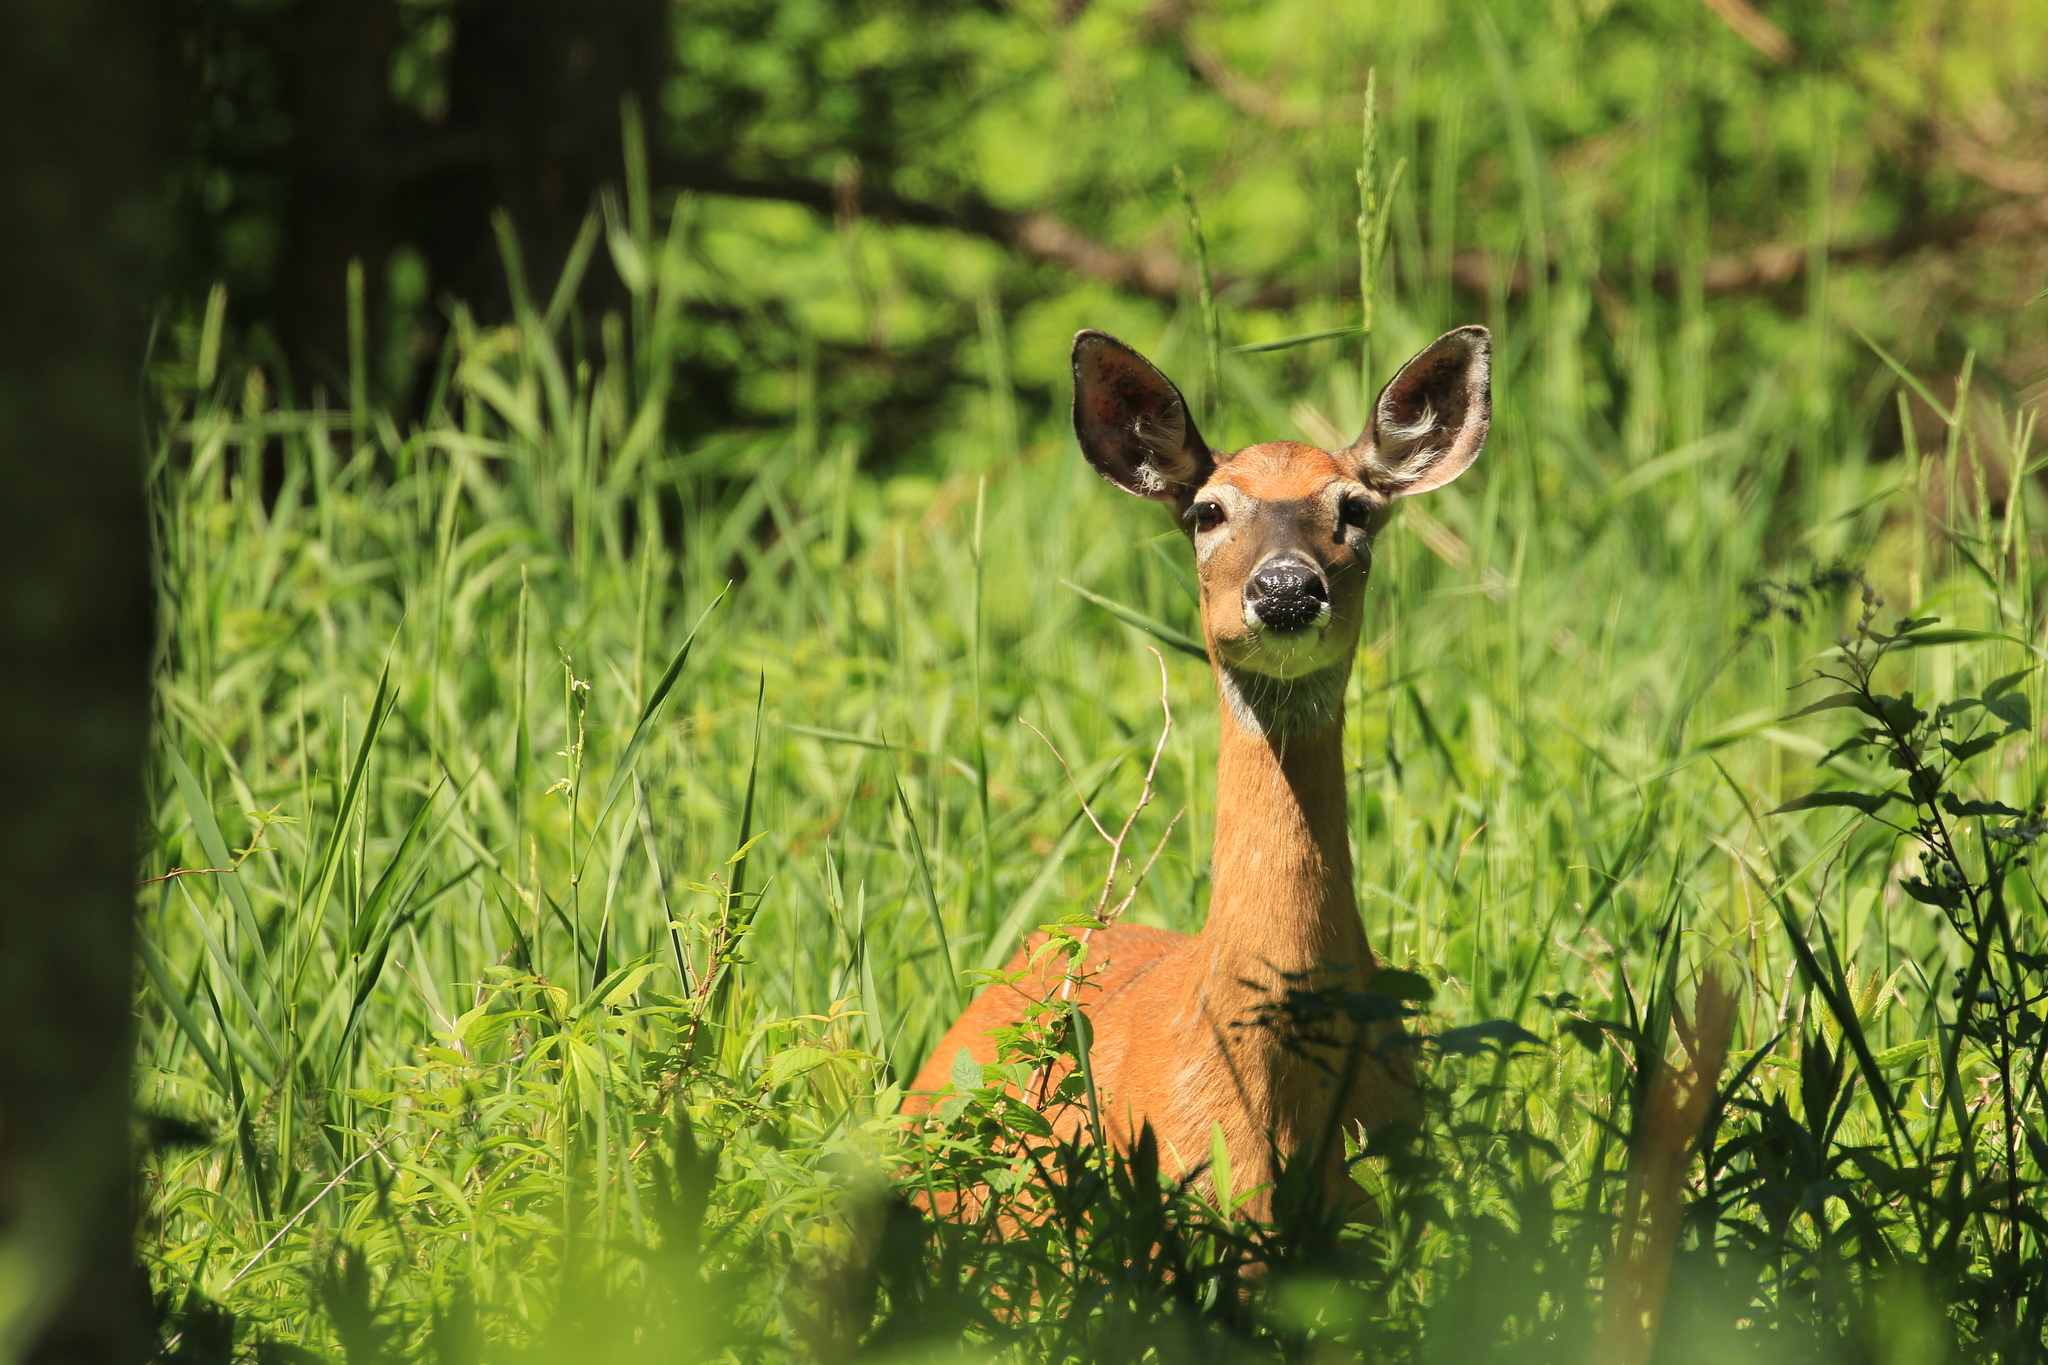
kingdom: Animalia
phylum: Chordata
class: Mammalia
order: Artiodactyla
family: Cervidae
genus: Odocoileus
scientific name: Odocoileus virginianus
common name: White-tailed deer
